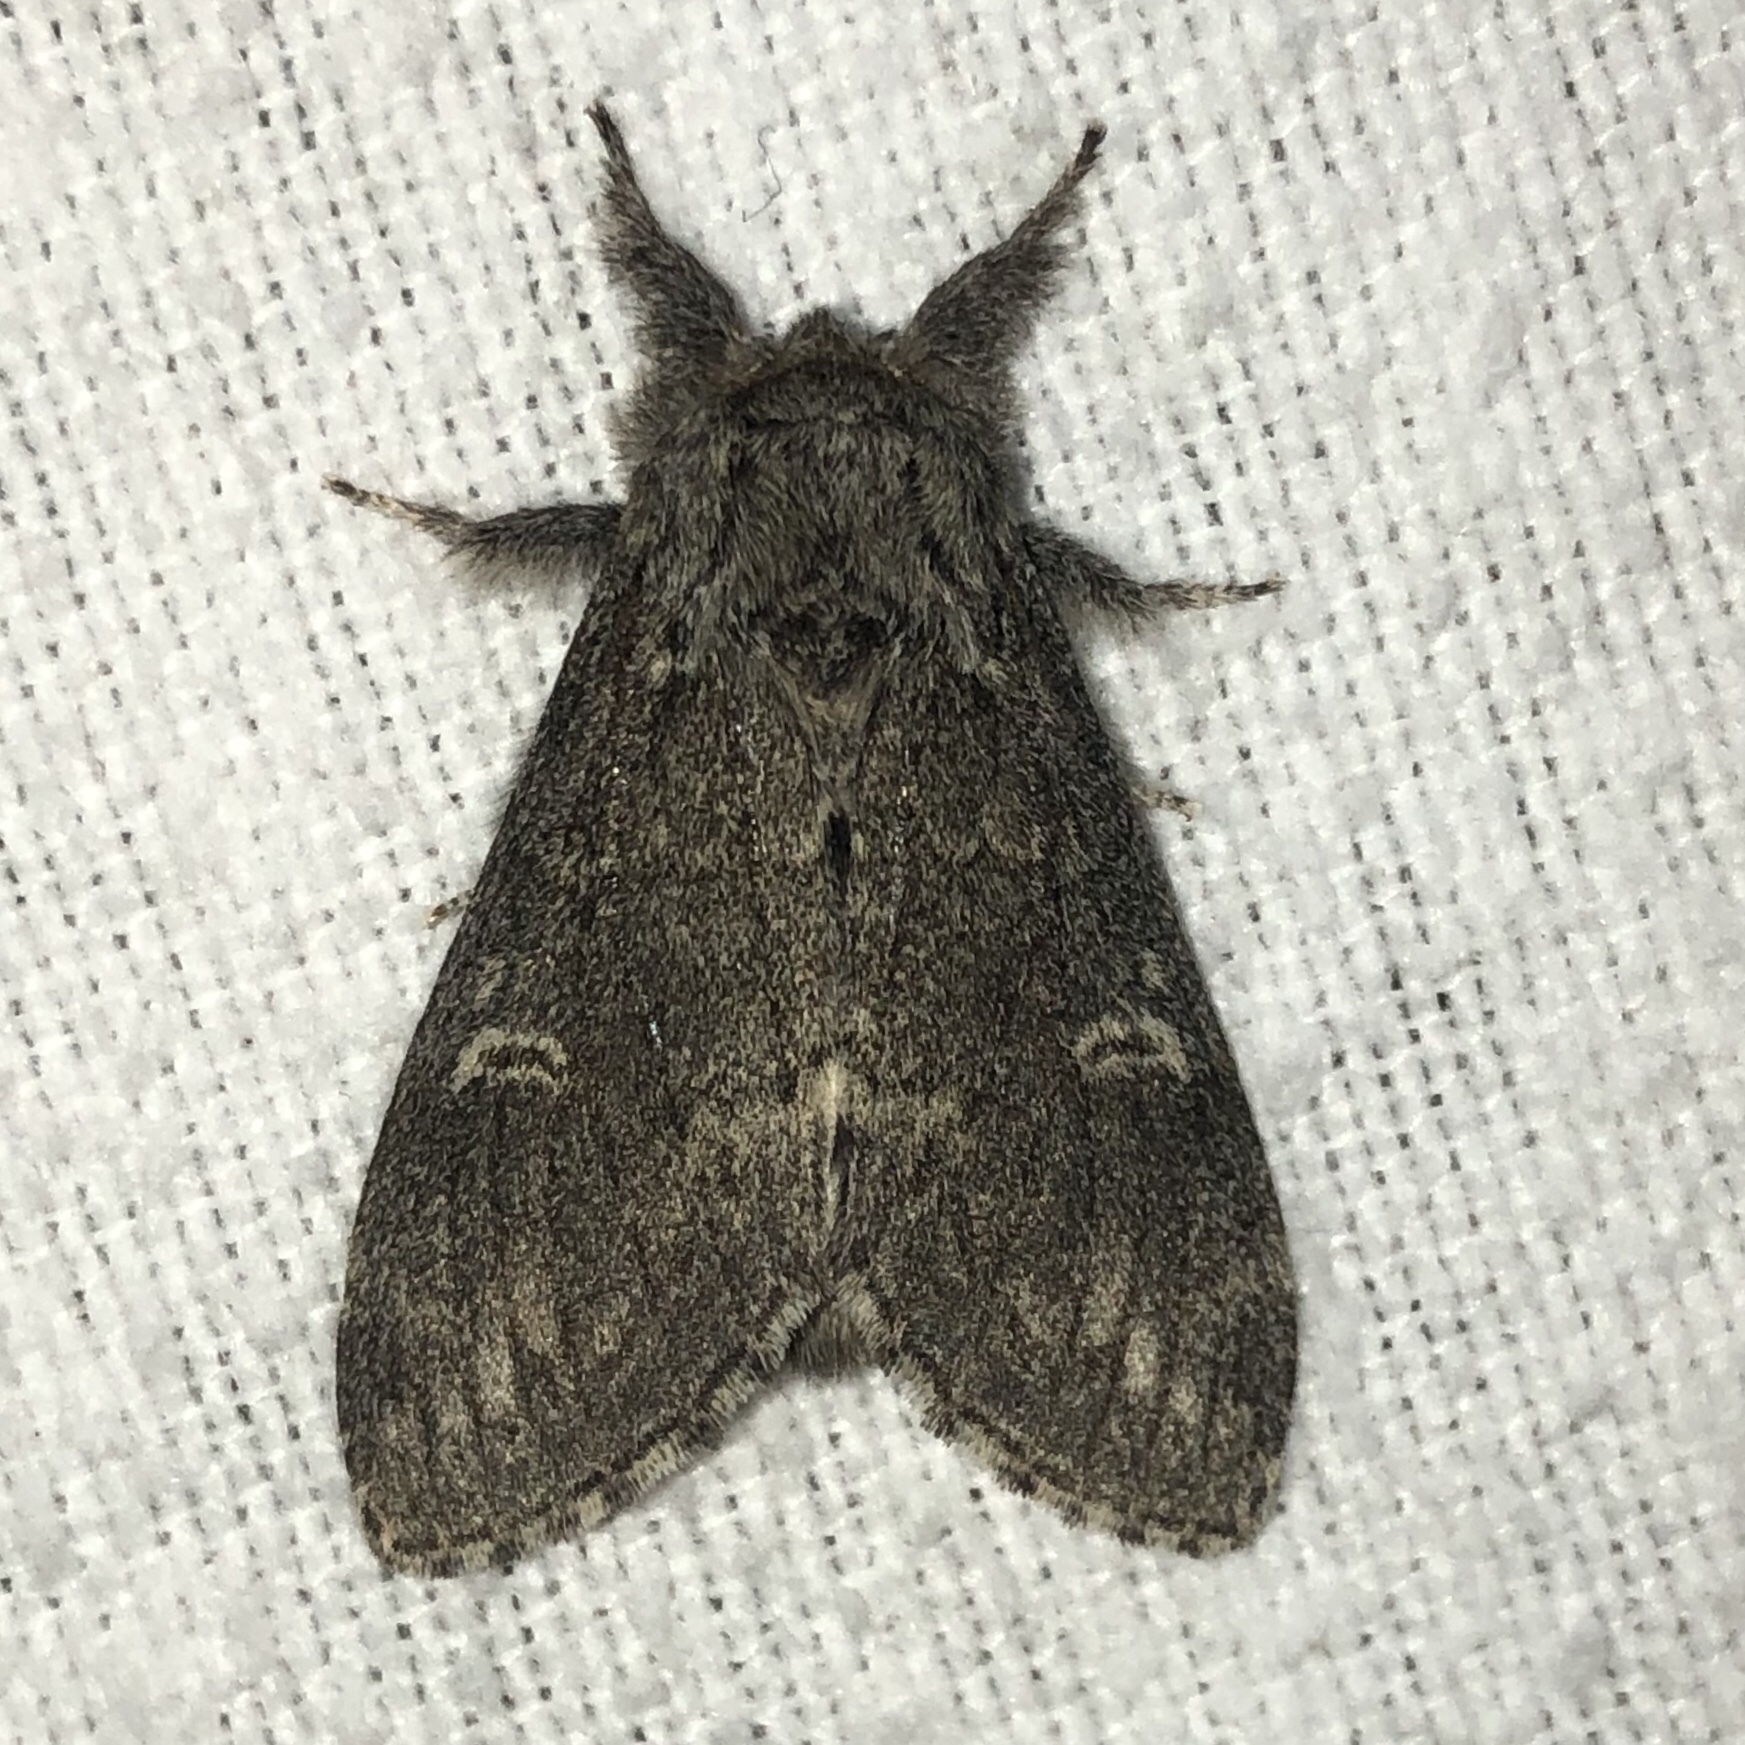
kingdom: Animalia
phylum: Arthropoda
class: Insecta
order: Lepidoptera
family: Notodontidae
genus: Notodonta
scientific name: Notodonta torva
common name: Large dark prominent
